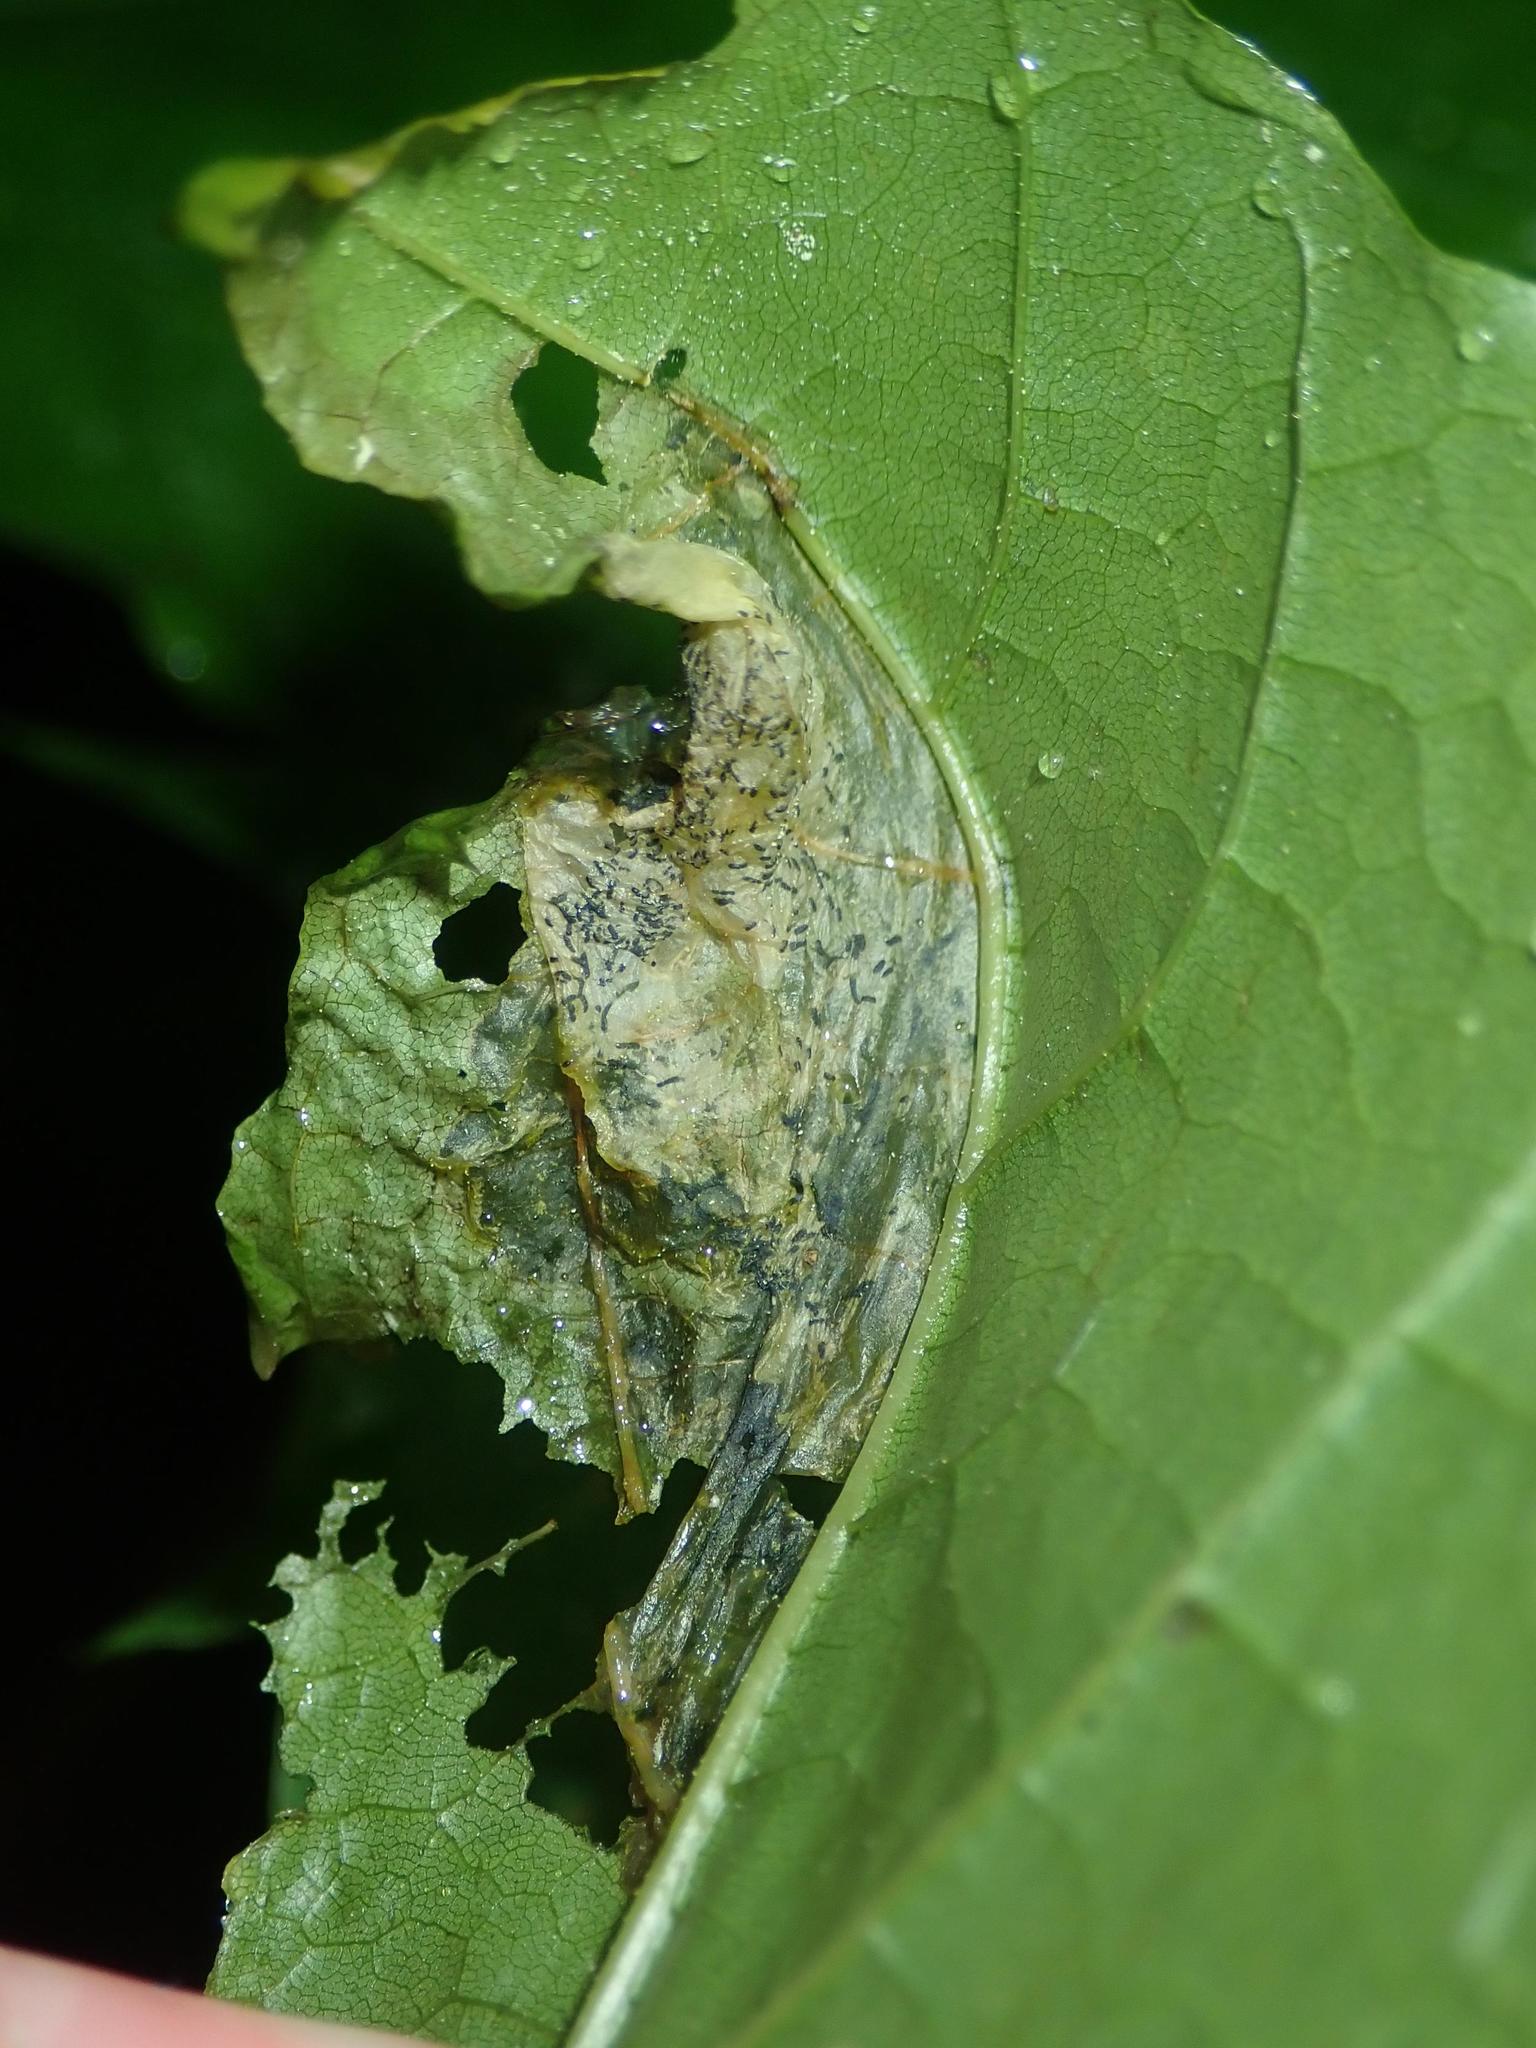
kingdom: Animalia
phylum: Arthropoda
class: Insecta
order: Hymenoptera
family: Tenthredinidae
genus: Hinatara
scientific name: Hinatara recta
